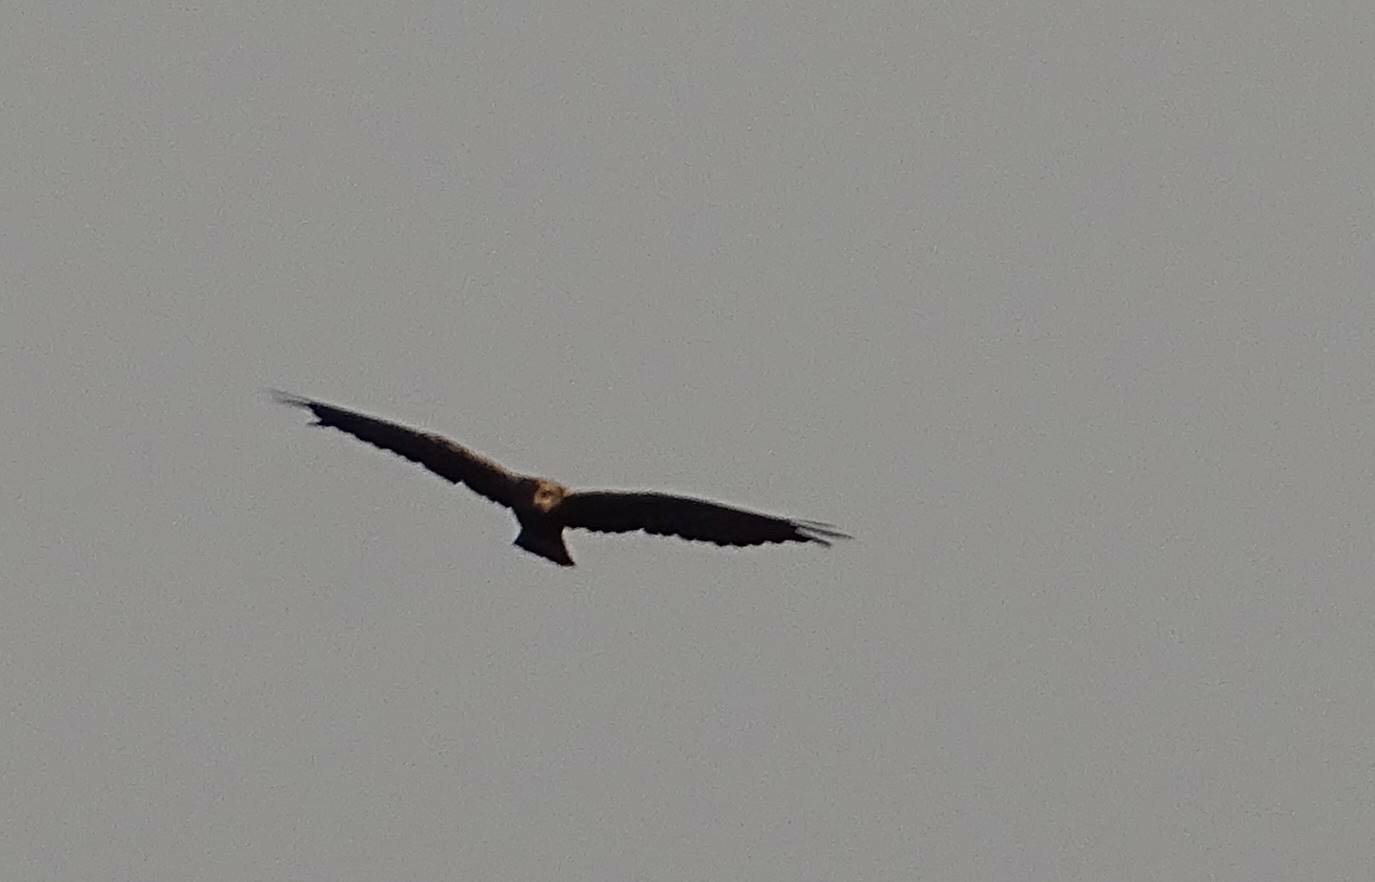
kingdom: Animalia
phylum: Chordata
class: Aves
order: Accipitriformes
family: Accipitridae
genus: Circus
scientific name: Circus aeruginosus
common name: Western marsh harrier
